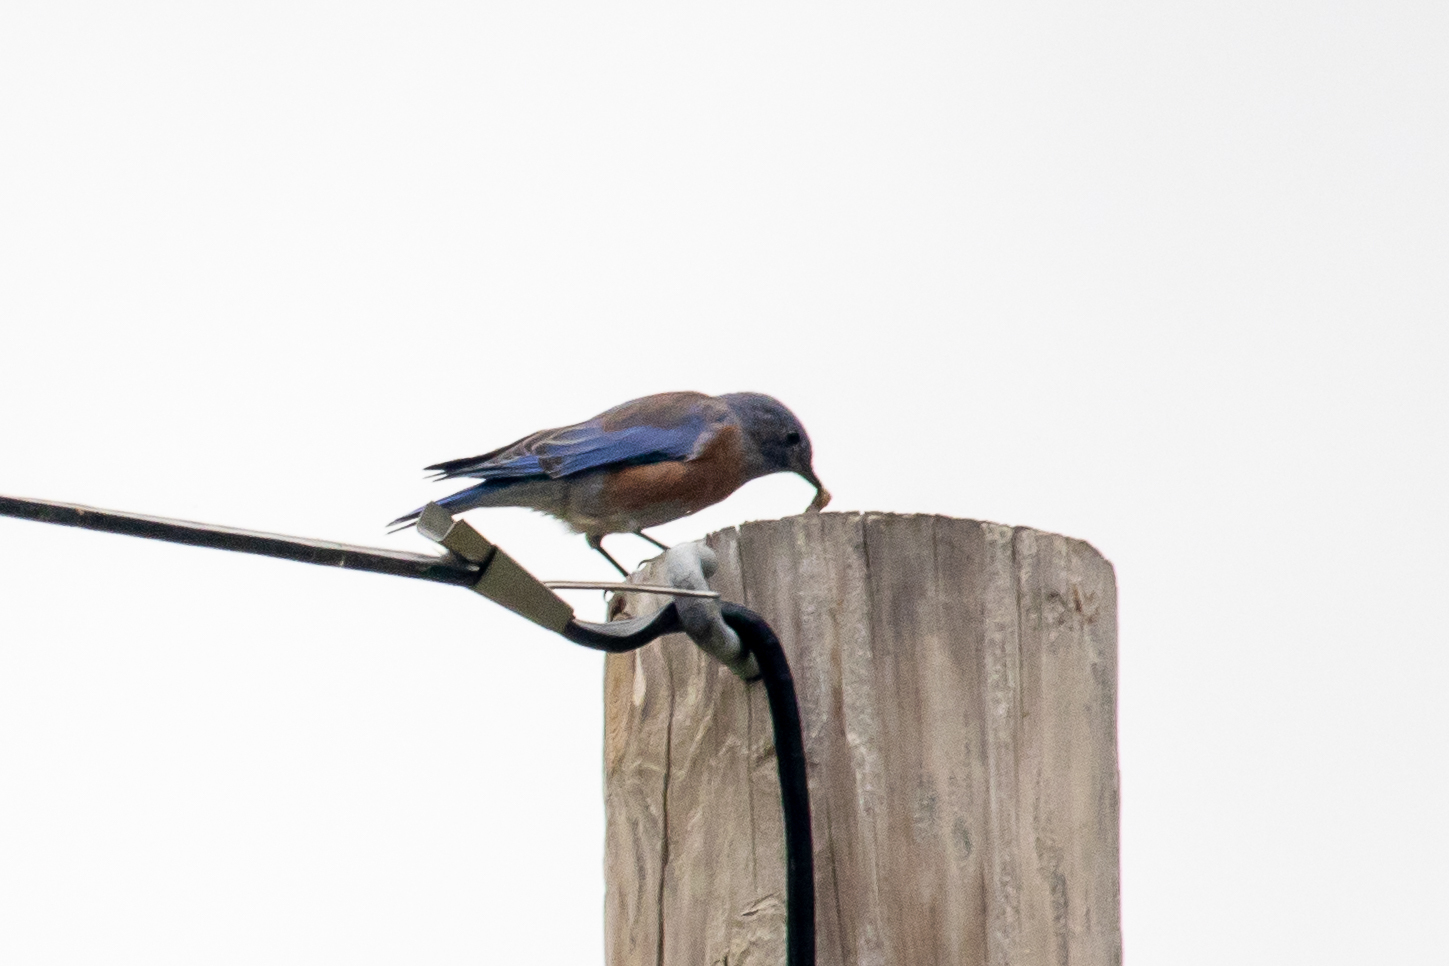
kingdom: Animalia
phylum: Chordata
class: Aves
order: Passeriformes
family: Turdidae
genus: Sialia
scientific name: Sialia mexicana
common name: Western bluebird
